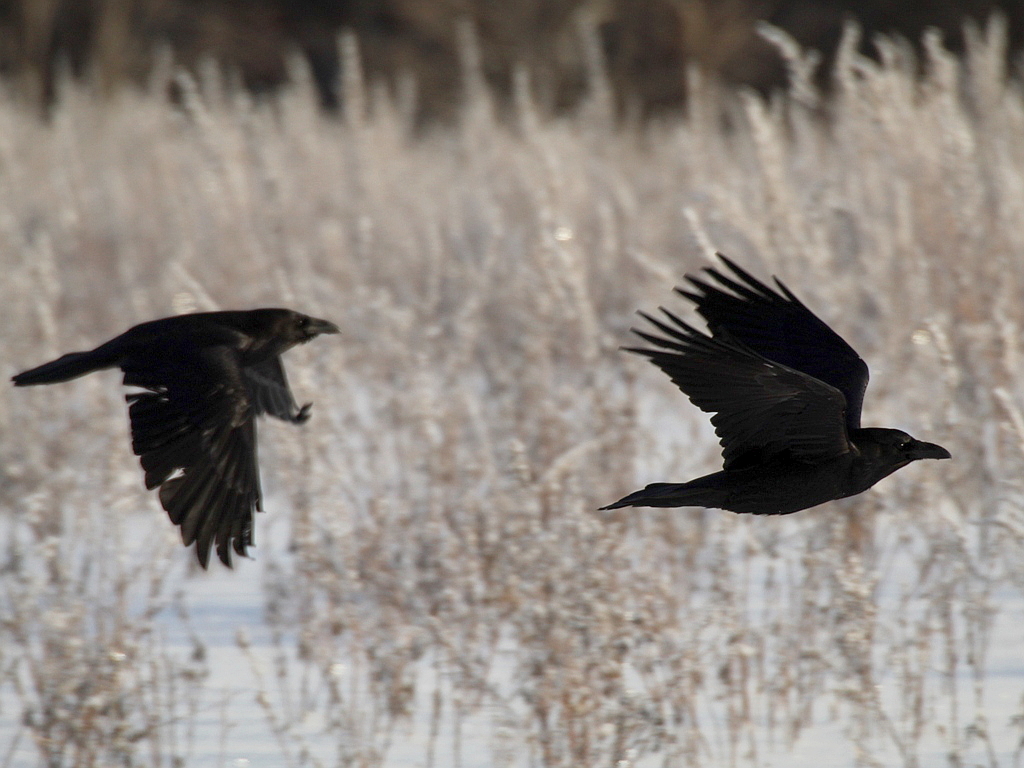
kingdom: Animalia
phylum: Chordata
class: Aves
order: Passeriformes
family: Corvidae
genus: Corvus
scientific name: Corvus corax
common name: Common raven
